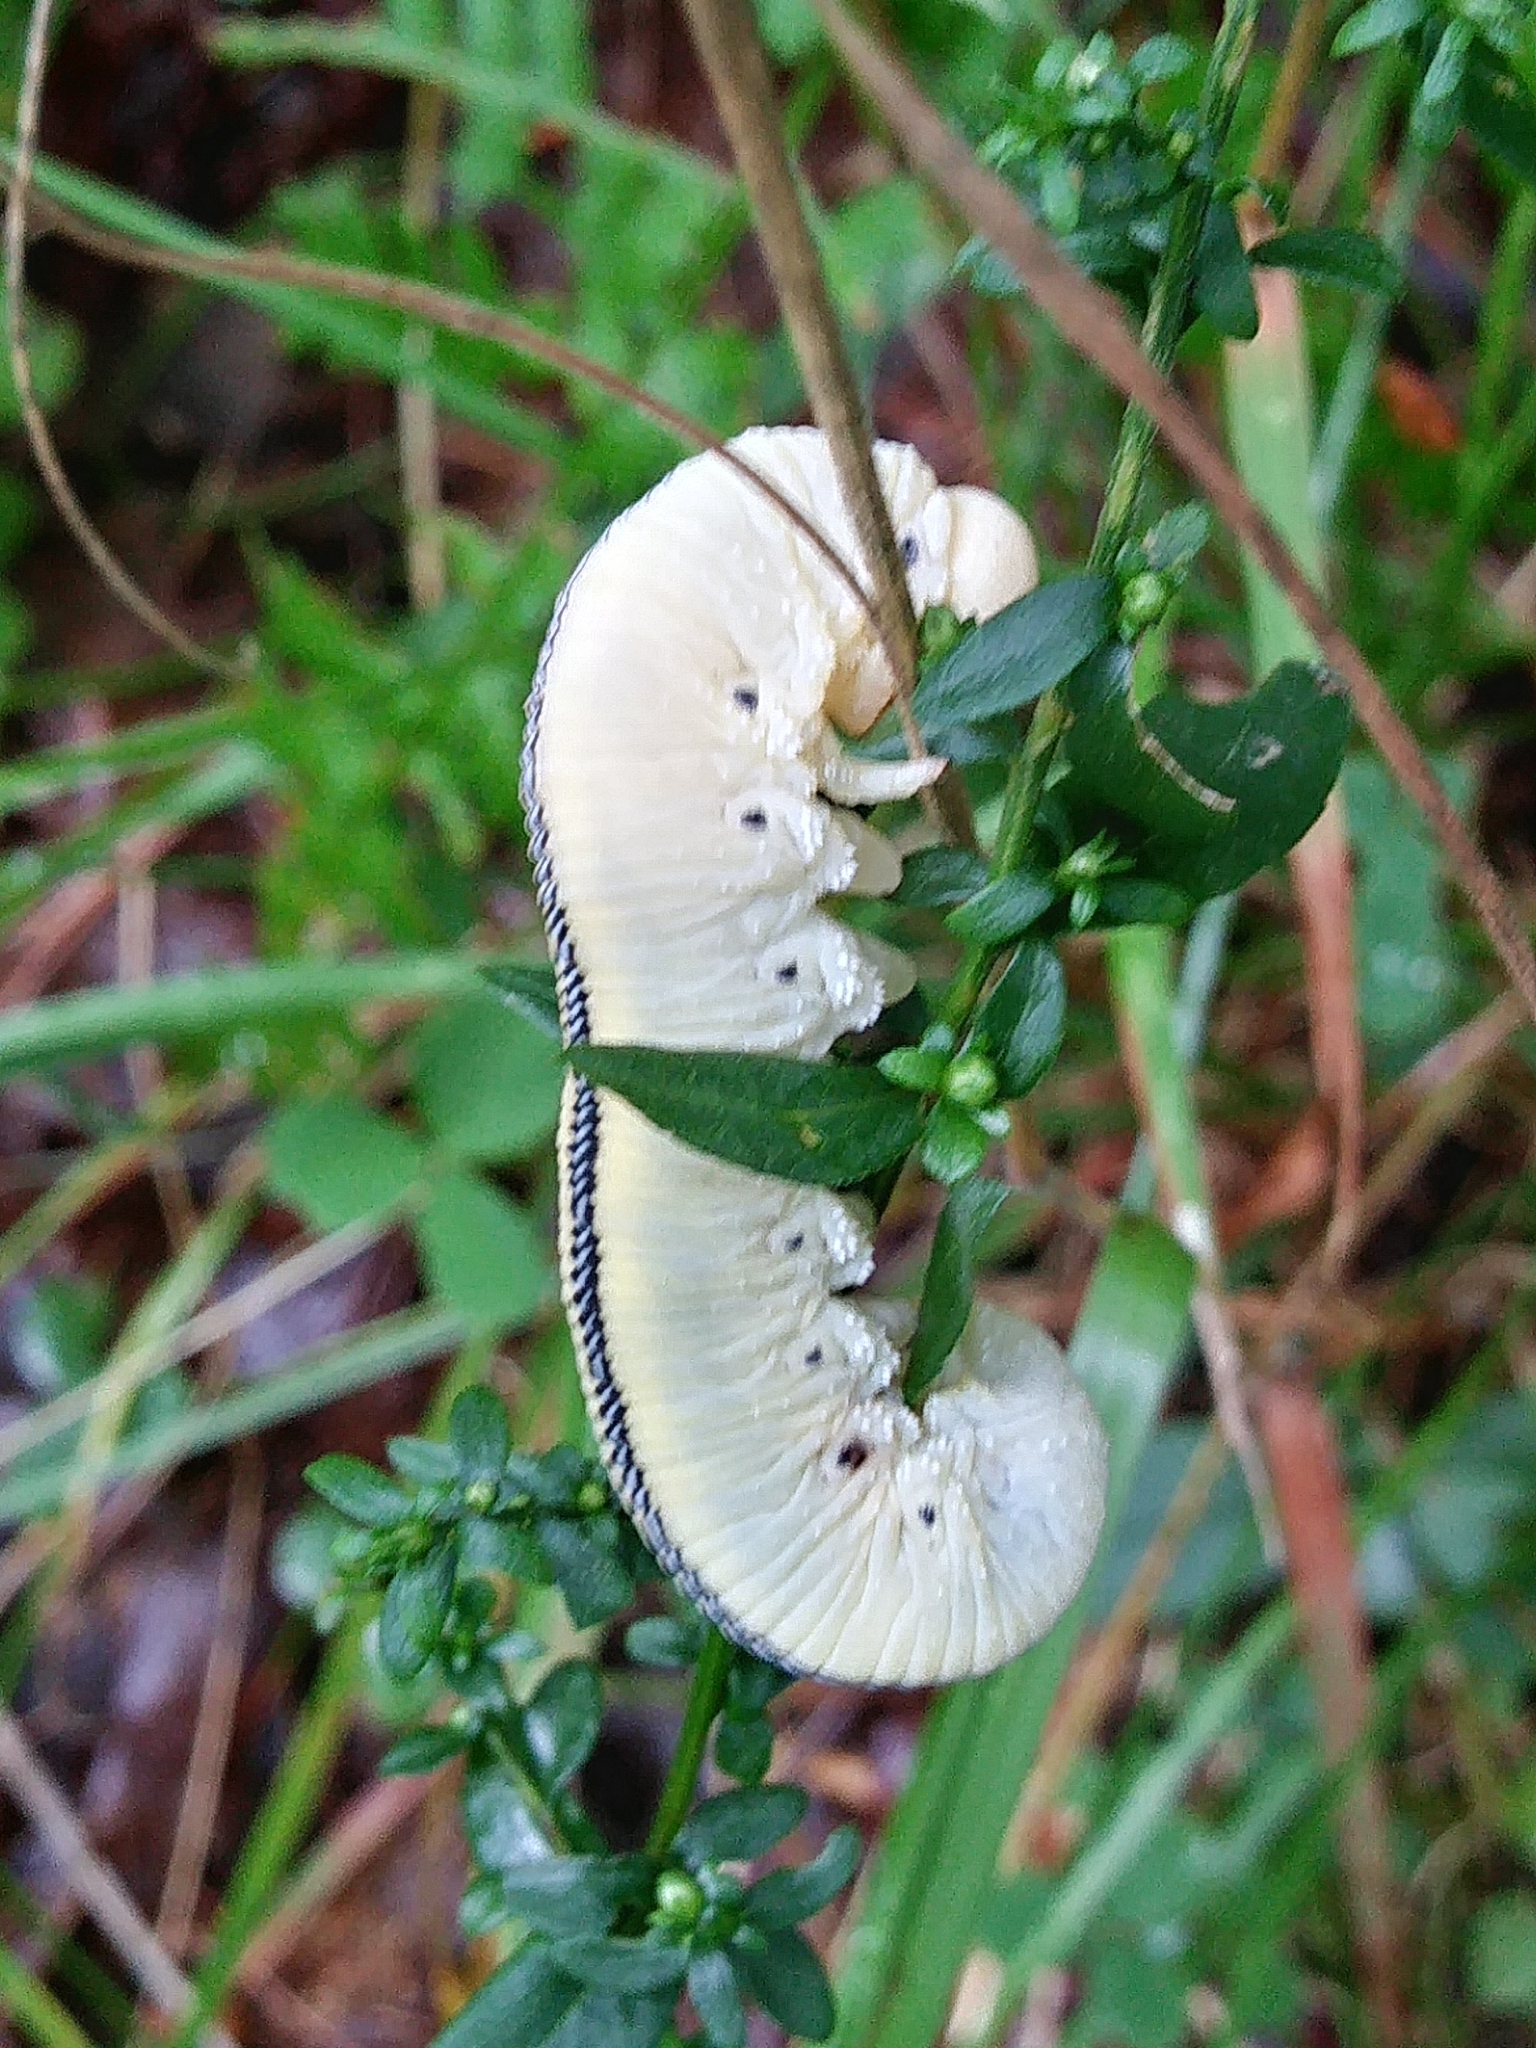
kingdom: Animalia
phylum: Arthropoda
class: Insecta
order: Hymenoptera
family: Cimbicidae
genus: Cimbex
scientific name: Cimbex americana
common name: Elm sawfly
